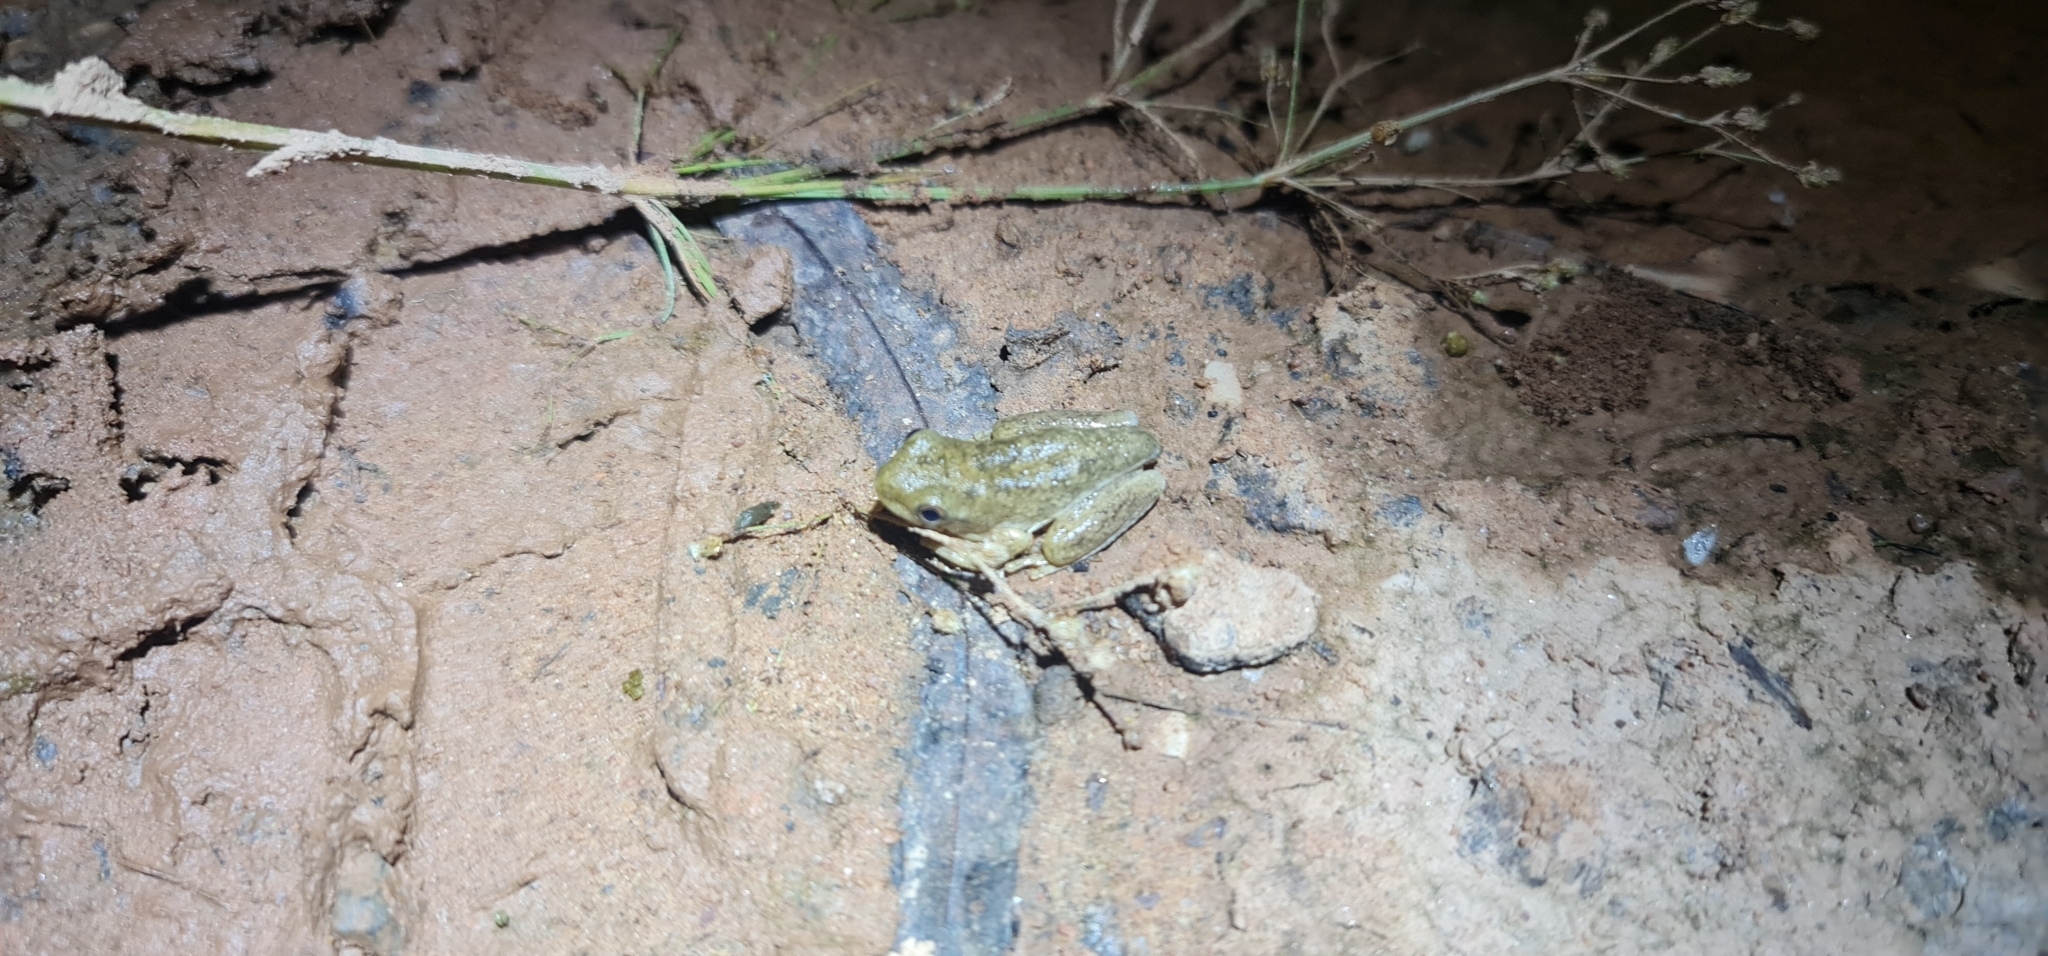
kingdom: Animalia
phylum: Chordata
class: Amphibia
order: Anura
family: Pelodryadidae
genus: Litoria
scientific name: Litoria
